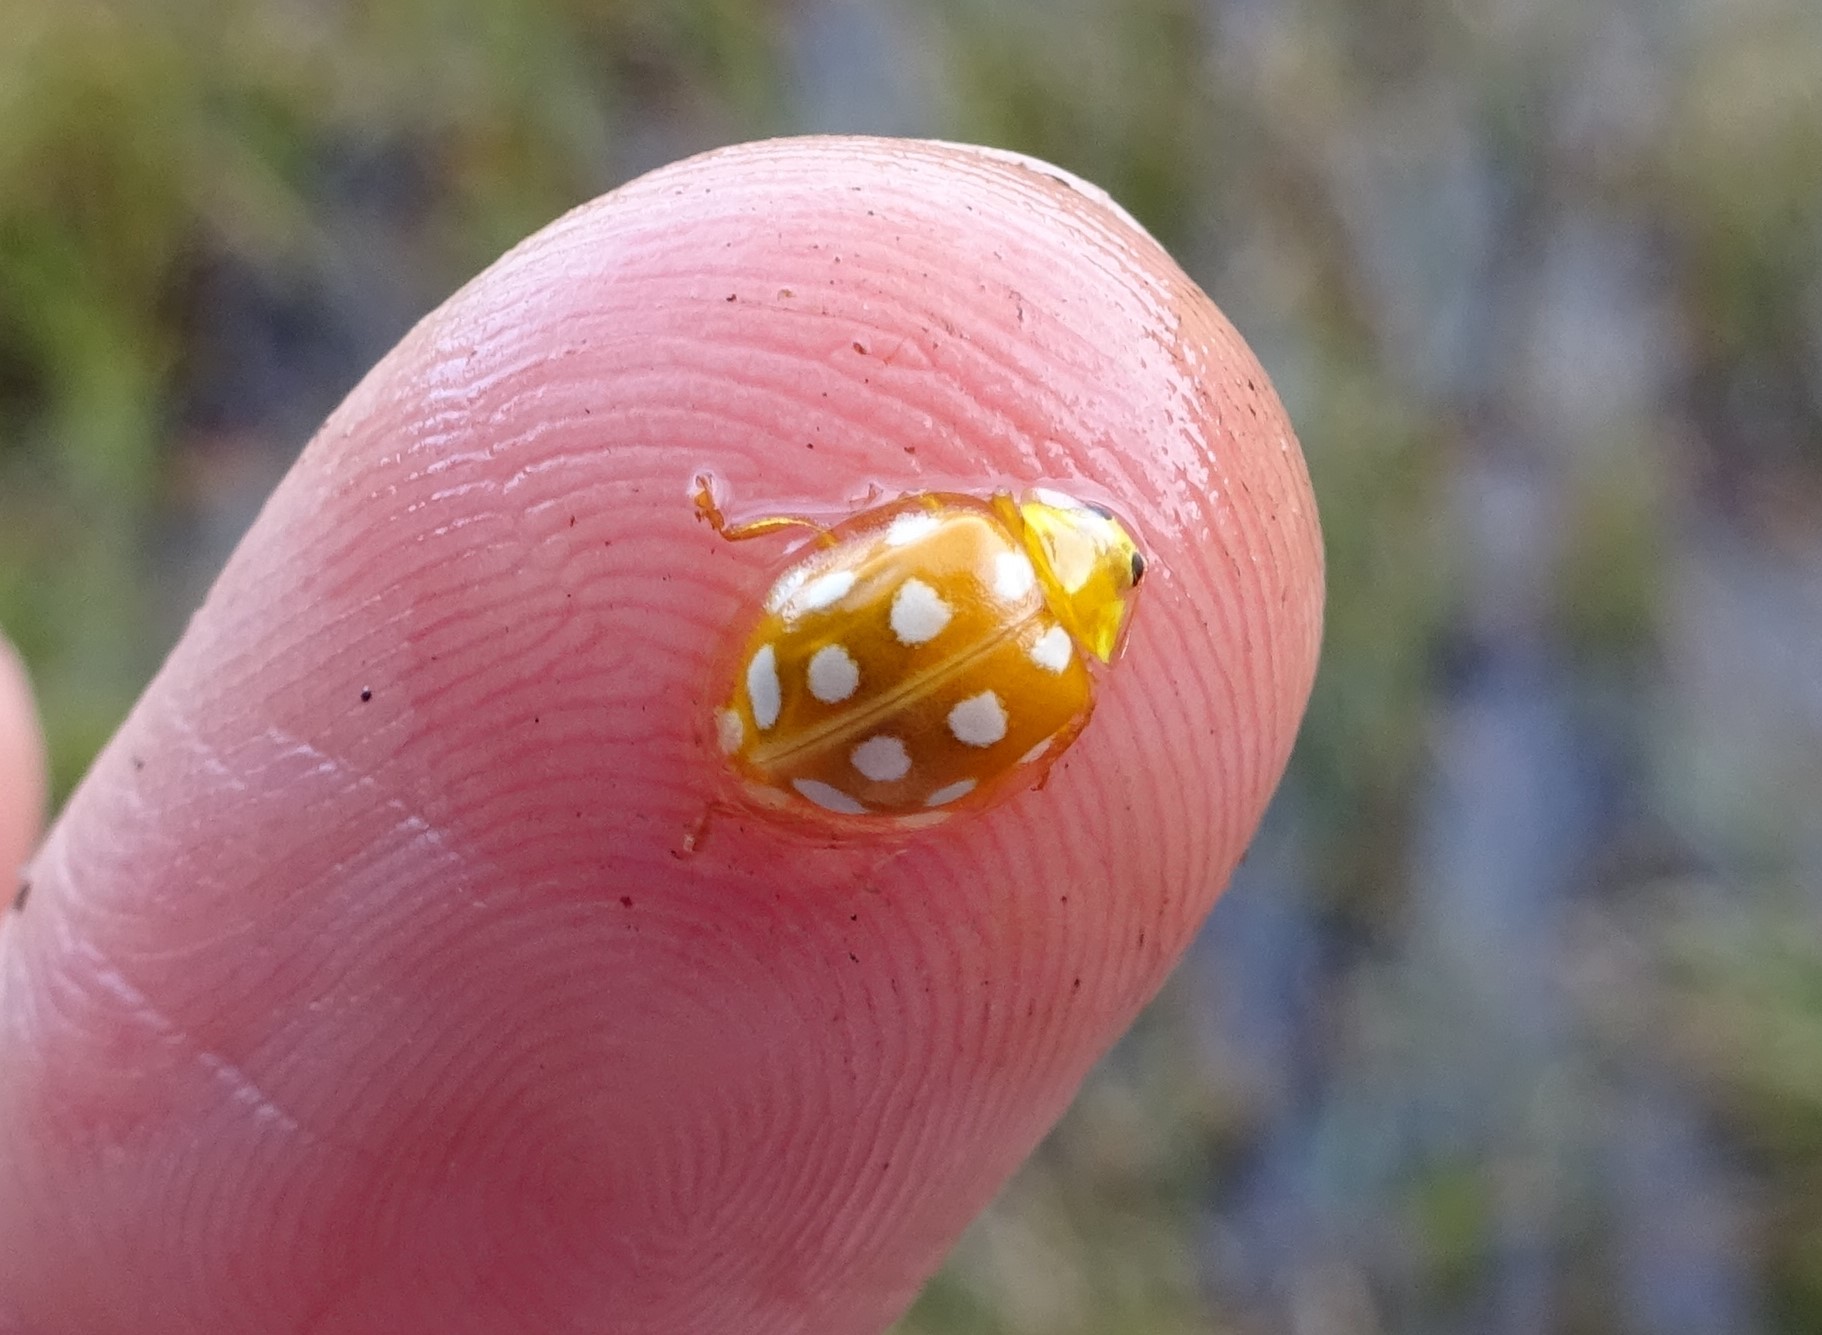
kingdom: Animalia
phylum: Arthropoda
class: Insecta
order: Coleoptera
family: Coccinellidae
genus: Halyzia
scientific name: Halyzia sedecimguttata
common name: Orange ladybird
